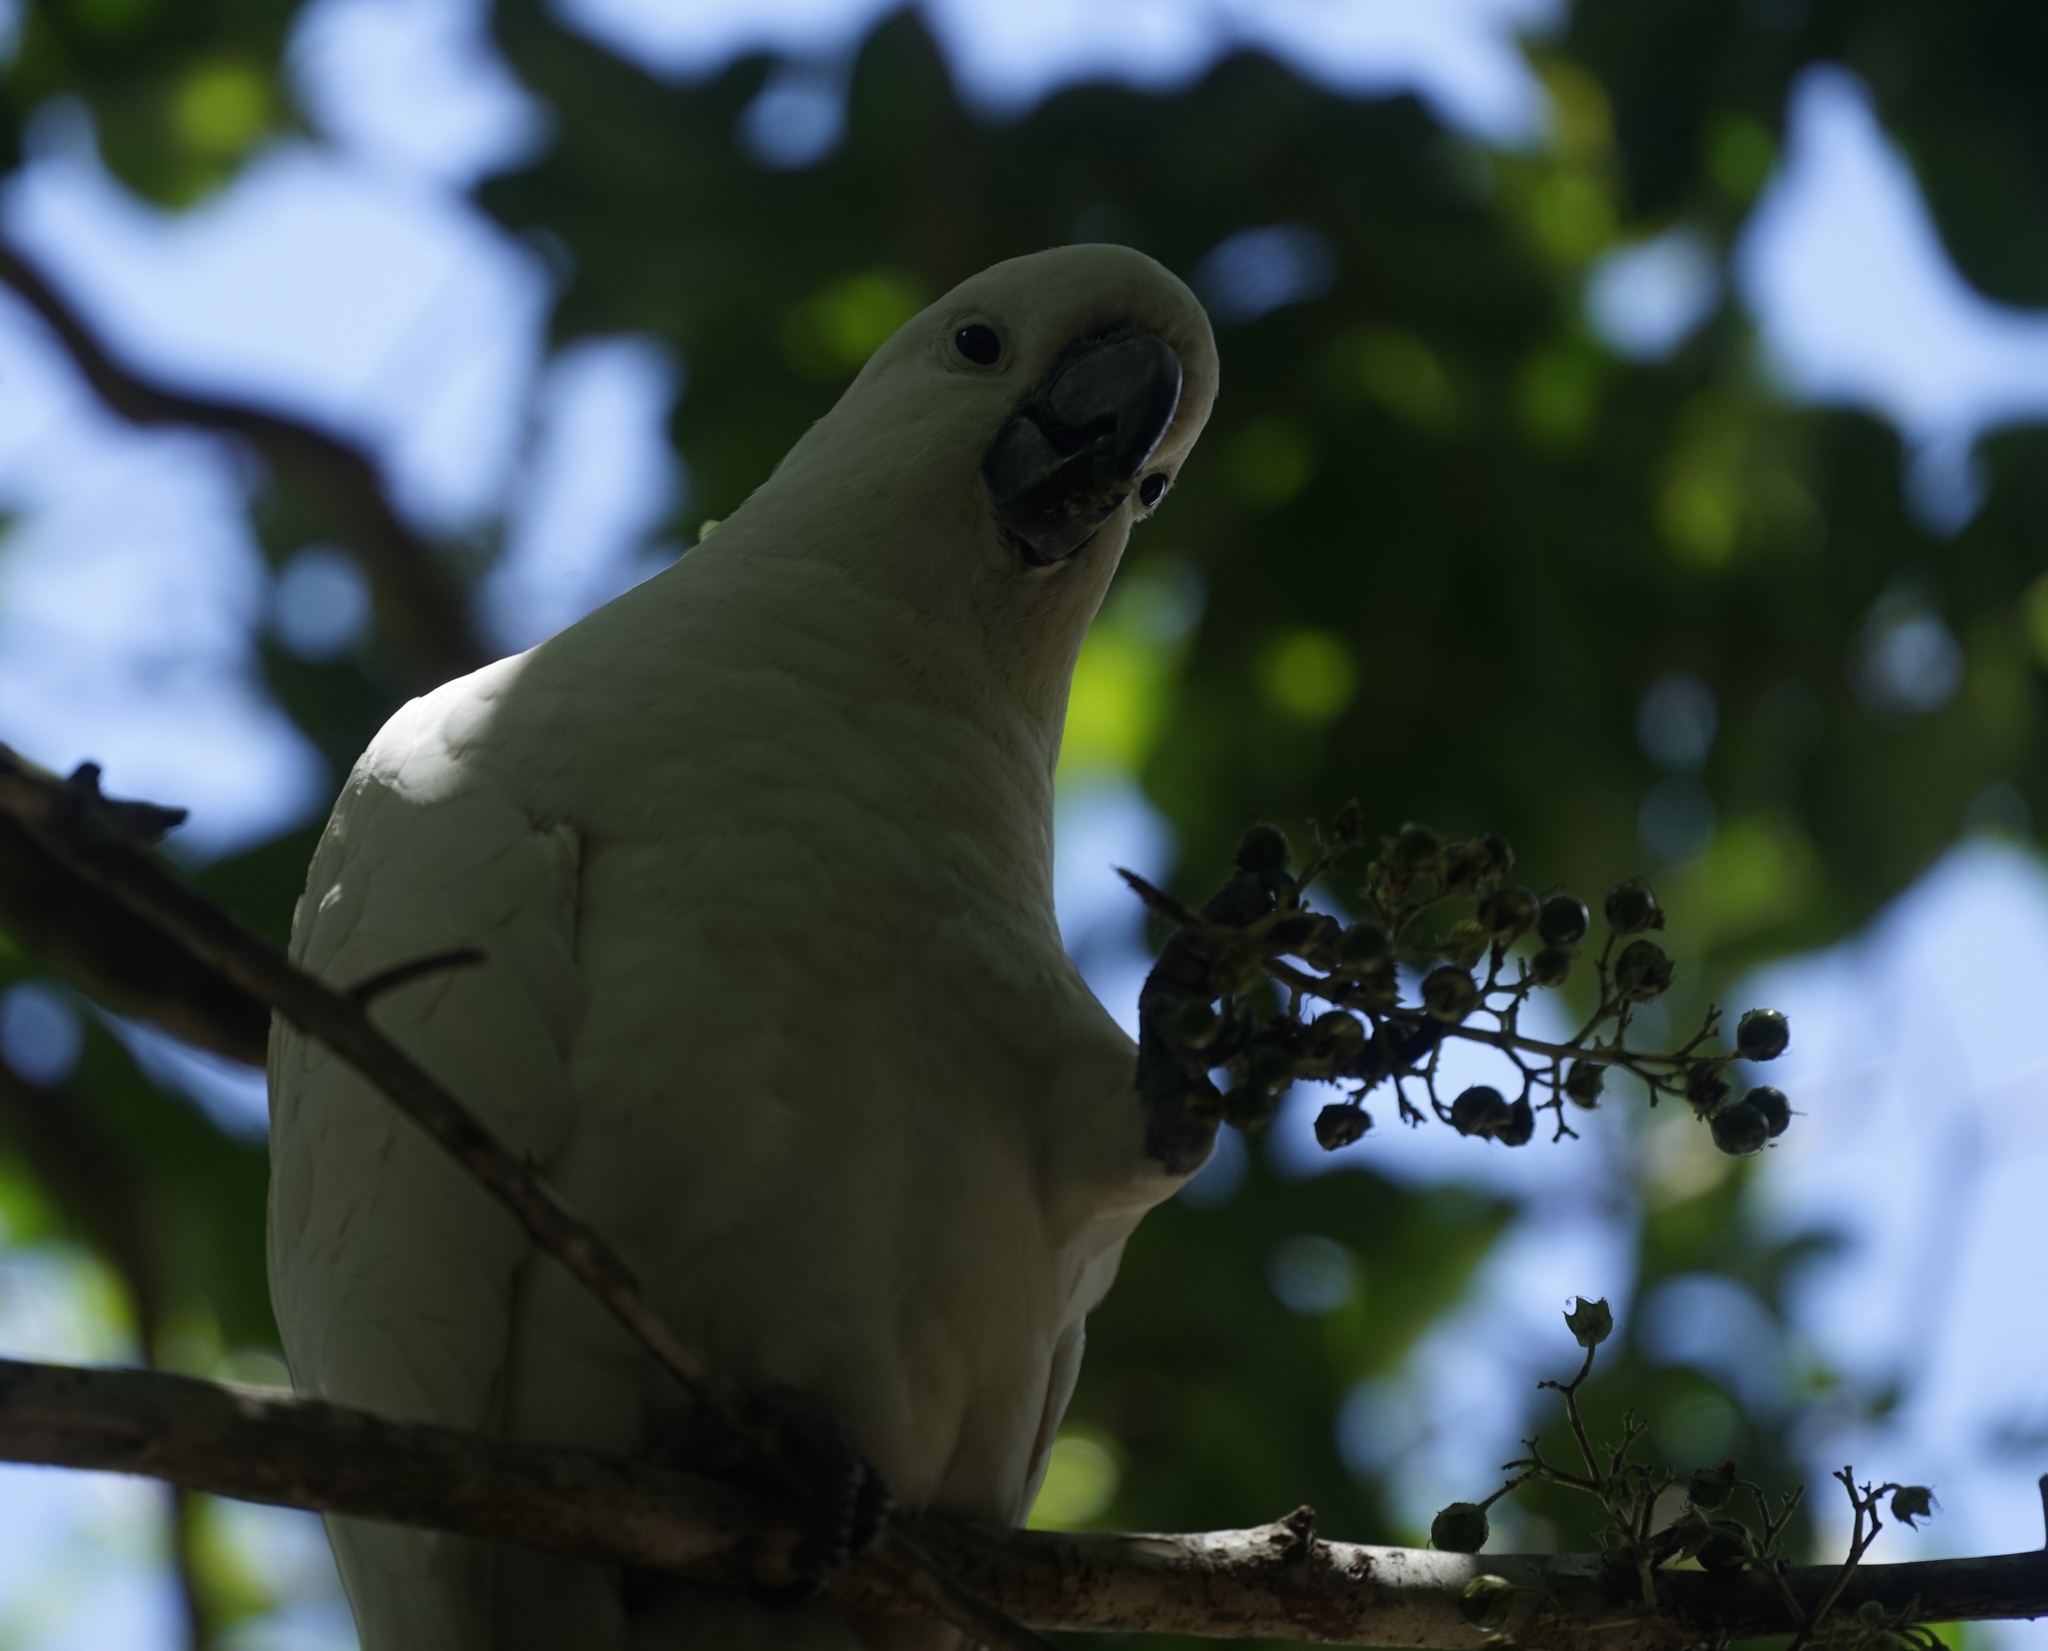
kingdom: Animalia
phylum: Chordata
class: Aves
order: Psittaciformes
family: Psittacidae
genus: Cacatua
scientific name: Cacatua galerita
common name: Sulphur-crested cockatoo
